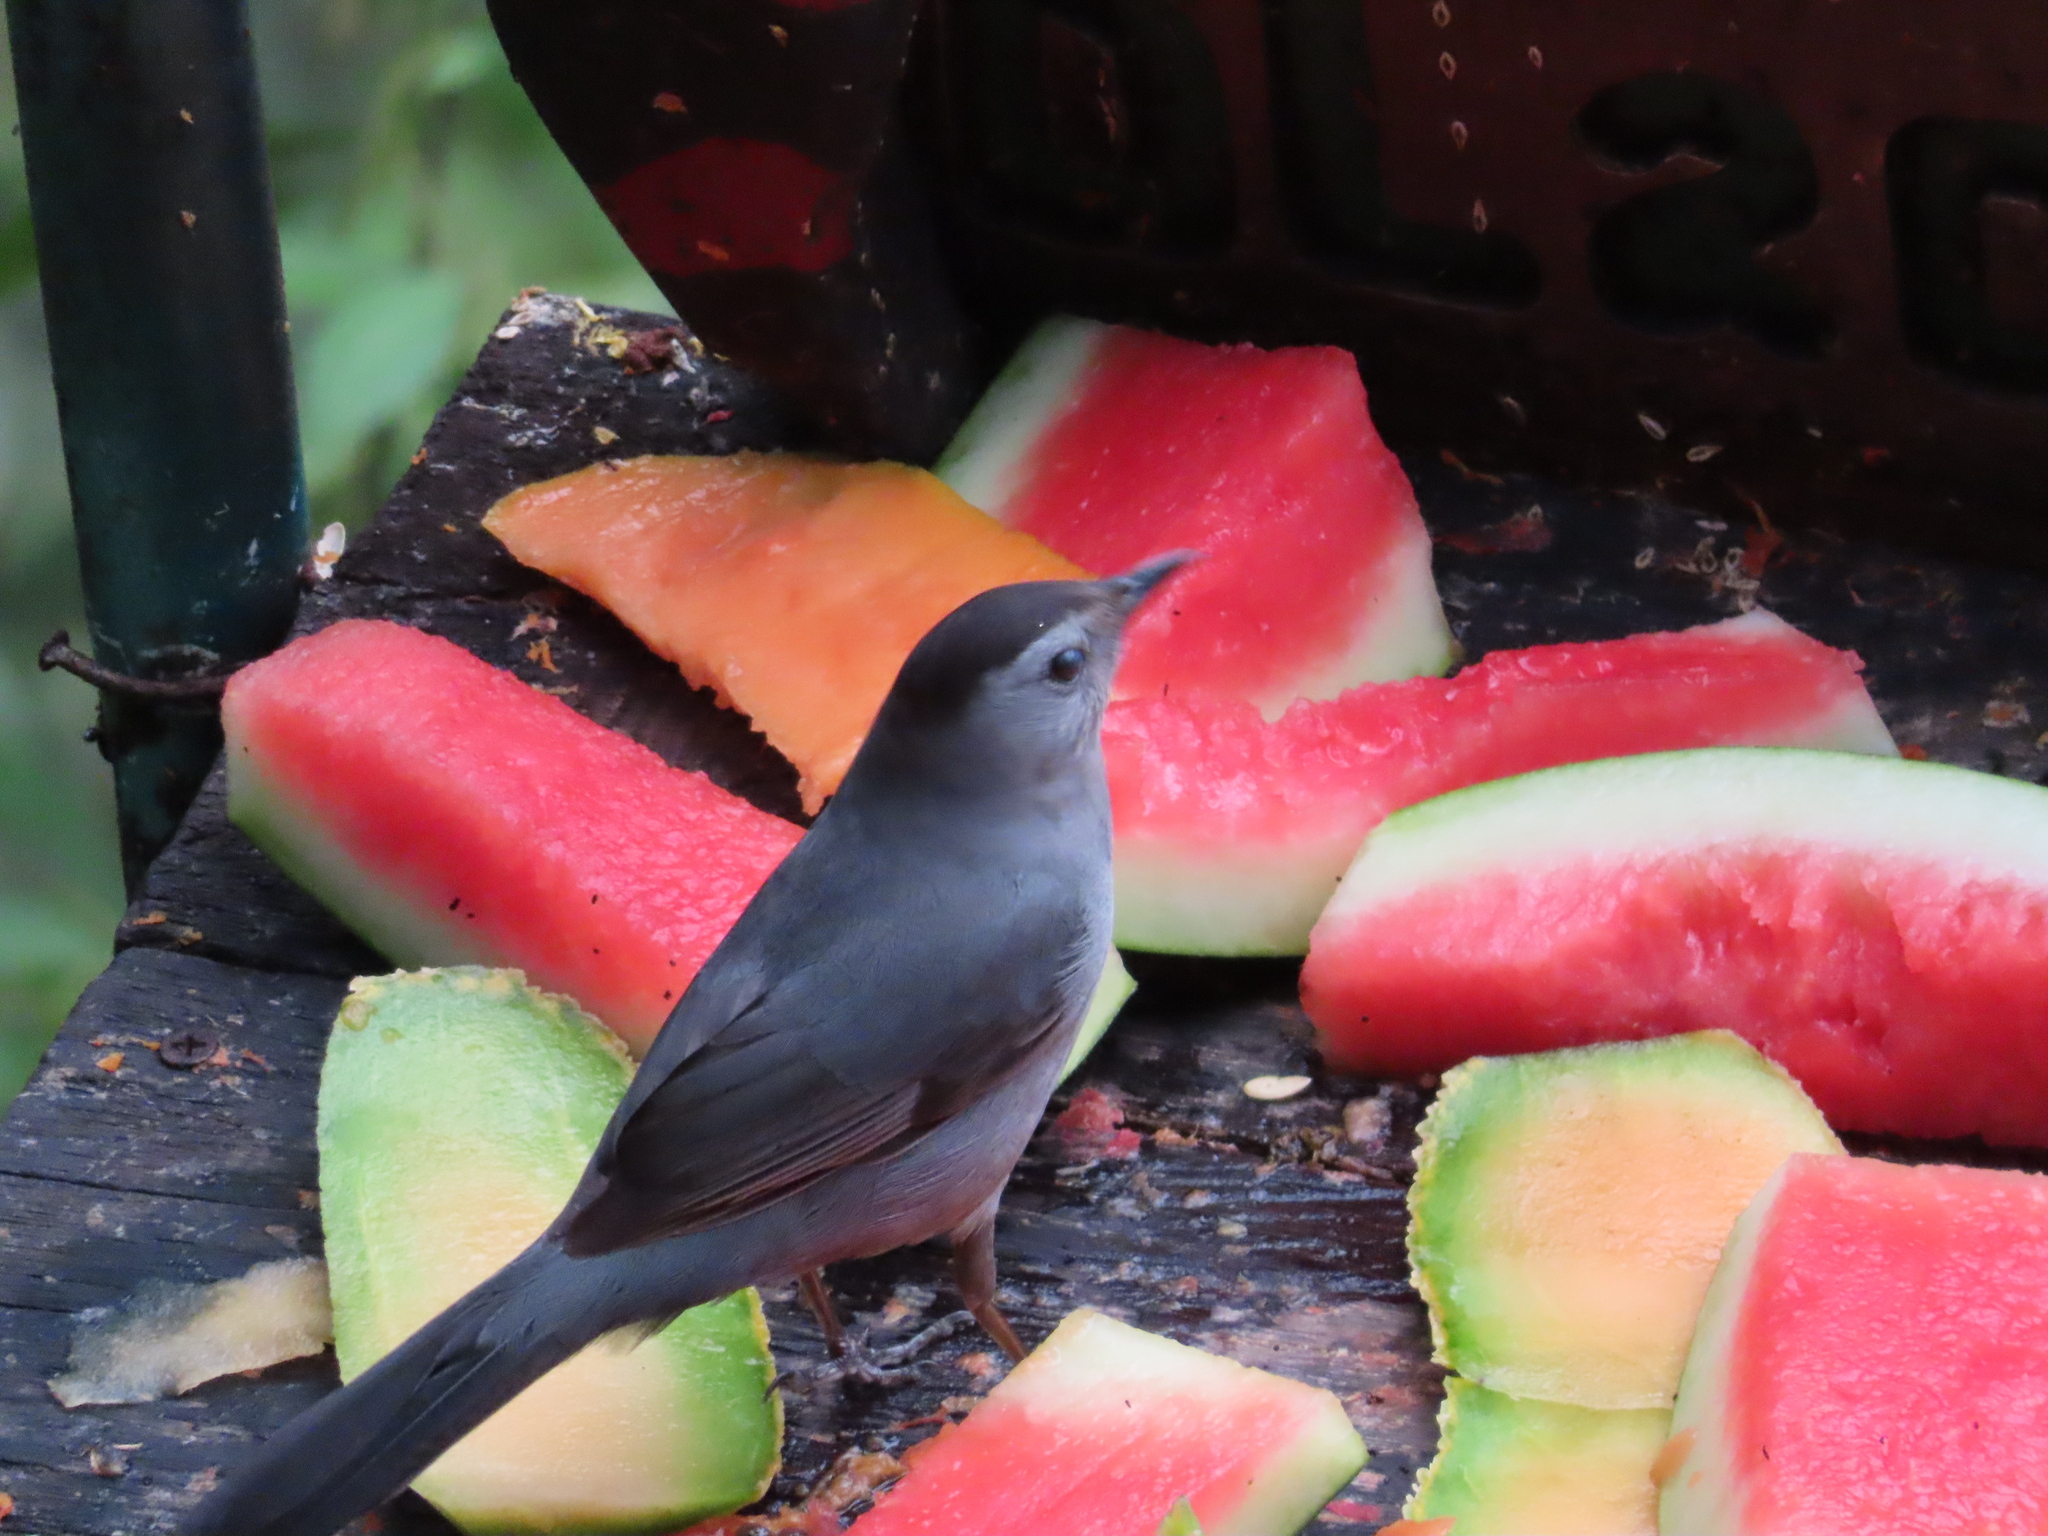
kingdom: Animalia
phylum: Chordata
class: Aves
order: Passeriformes
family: Mimidae
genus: Dumetella
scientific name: Dumetella carolinensis
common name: Gray catbird
